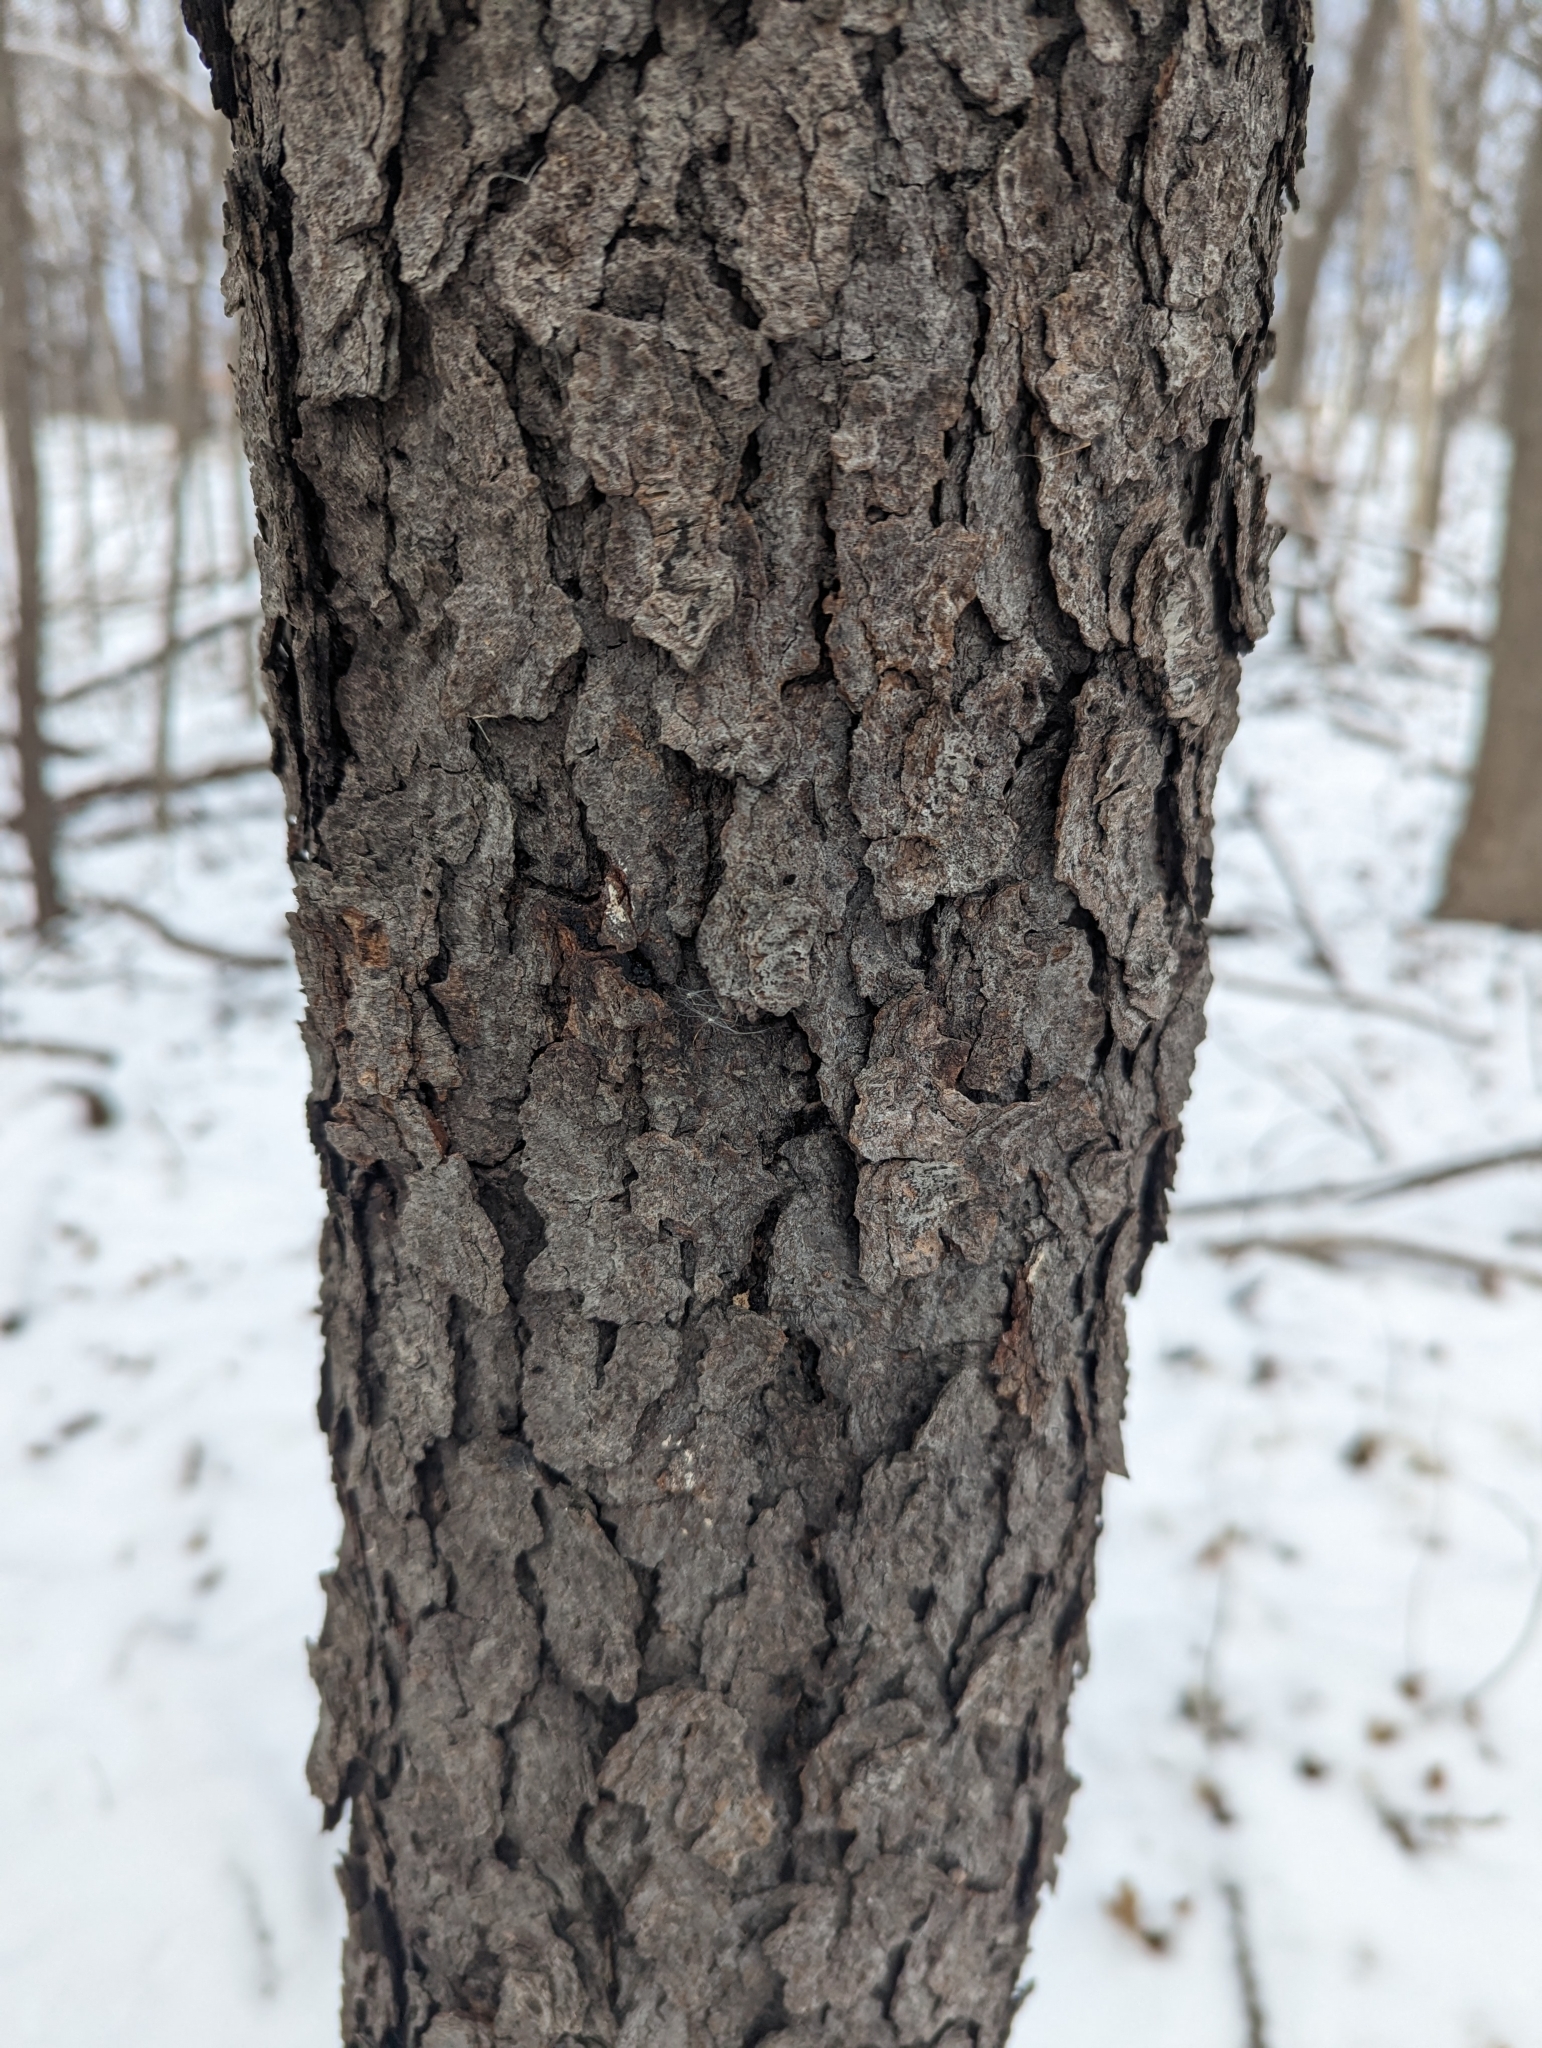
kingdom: Plantae
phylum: Tracheophyta
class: Magnoliopsida
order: Rosales
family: Rosaceae
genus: Prunus
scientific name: Prunus serotina
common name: Black cherry
